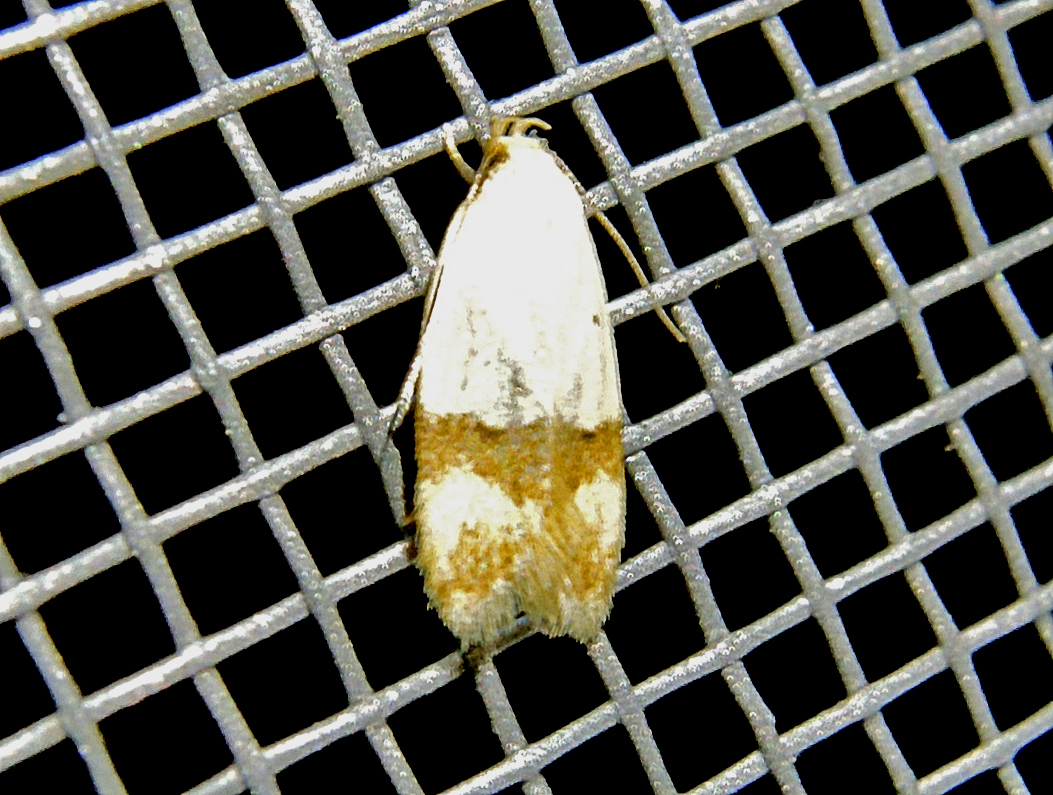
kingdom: Animalia
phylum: Arthropoda
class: Insecta
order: Lepidoptera
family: Peleopodidae
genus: Odites
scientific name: Odites kollarella
